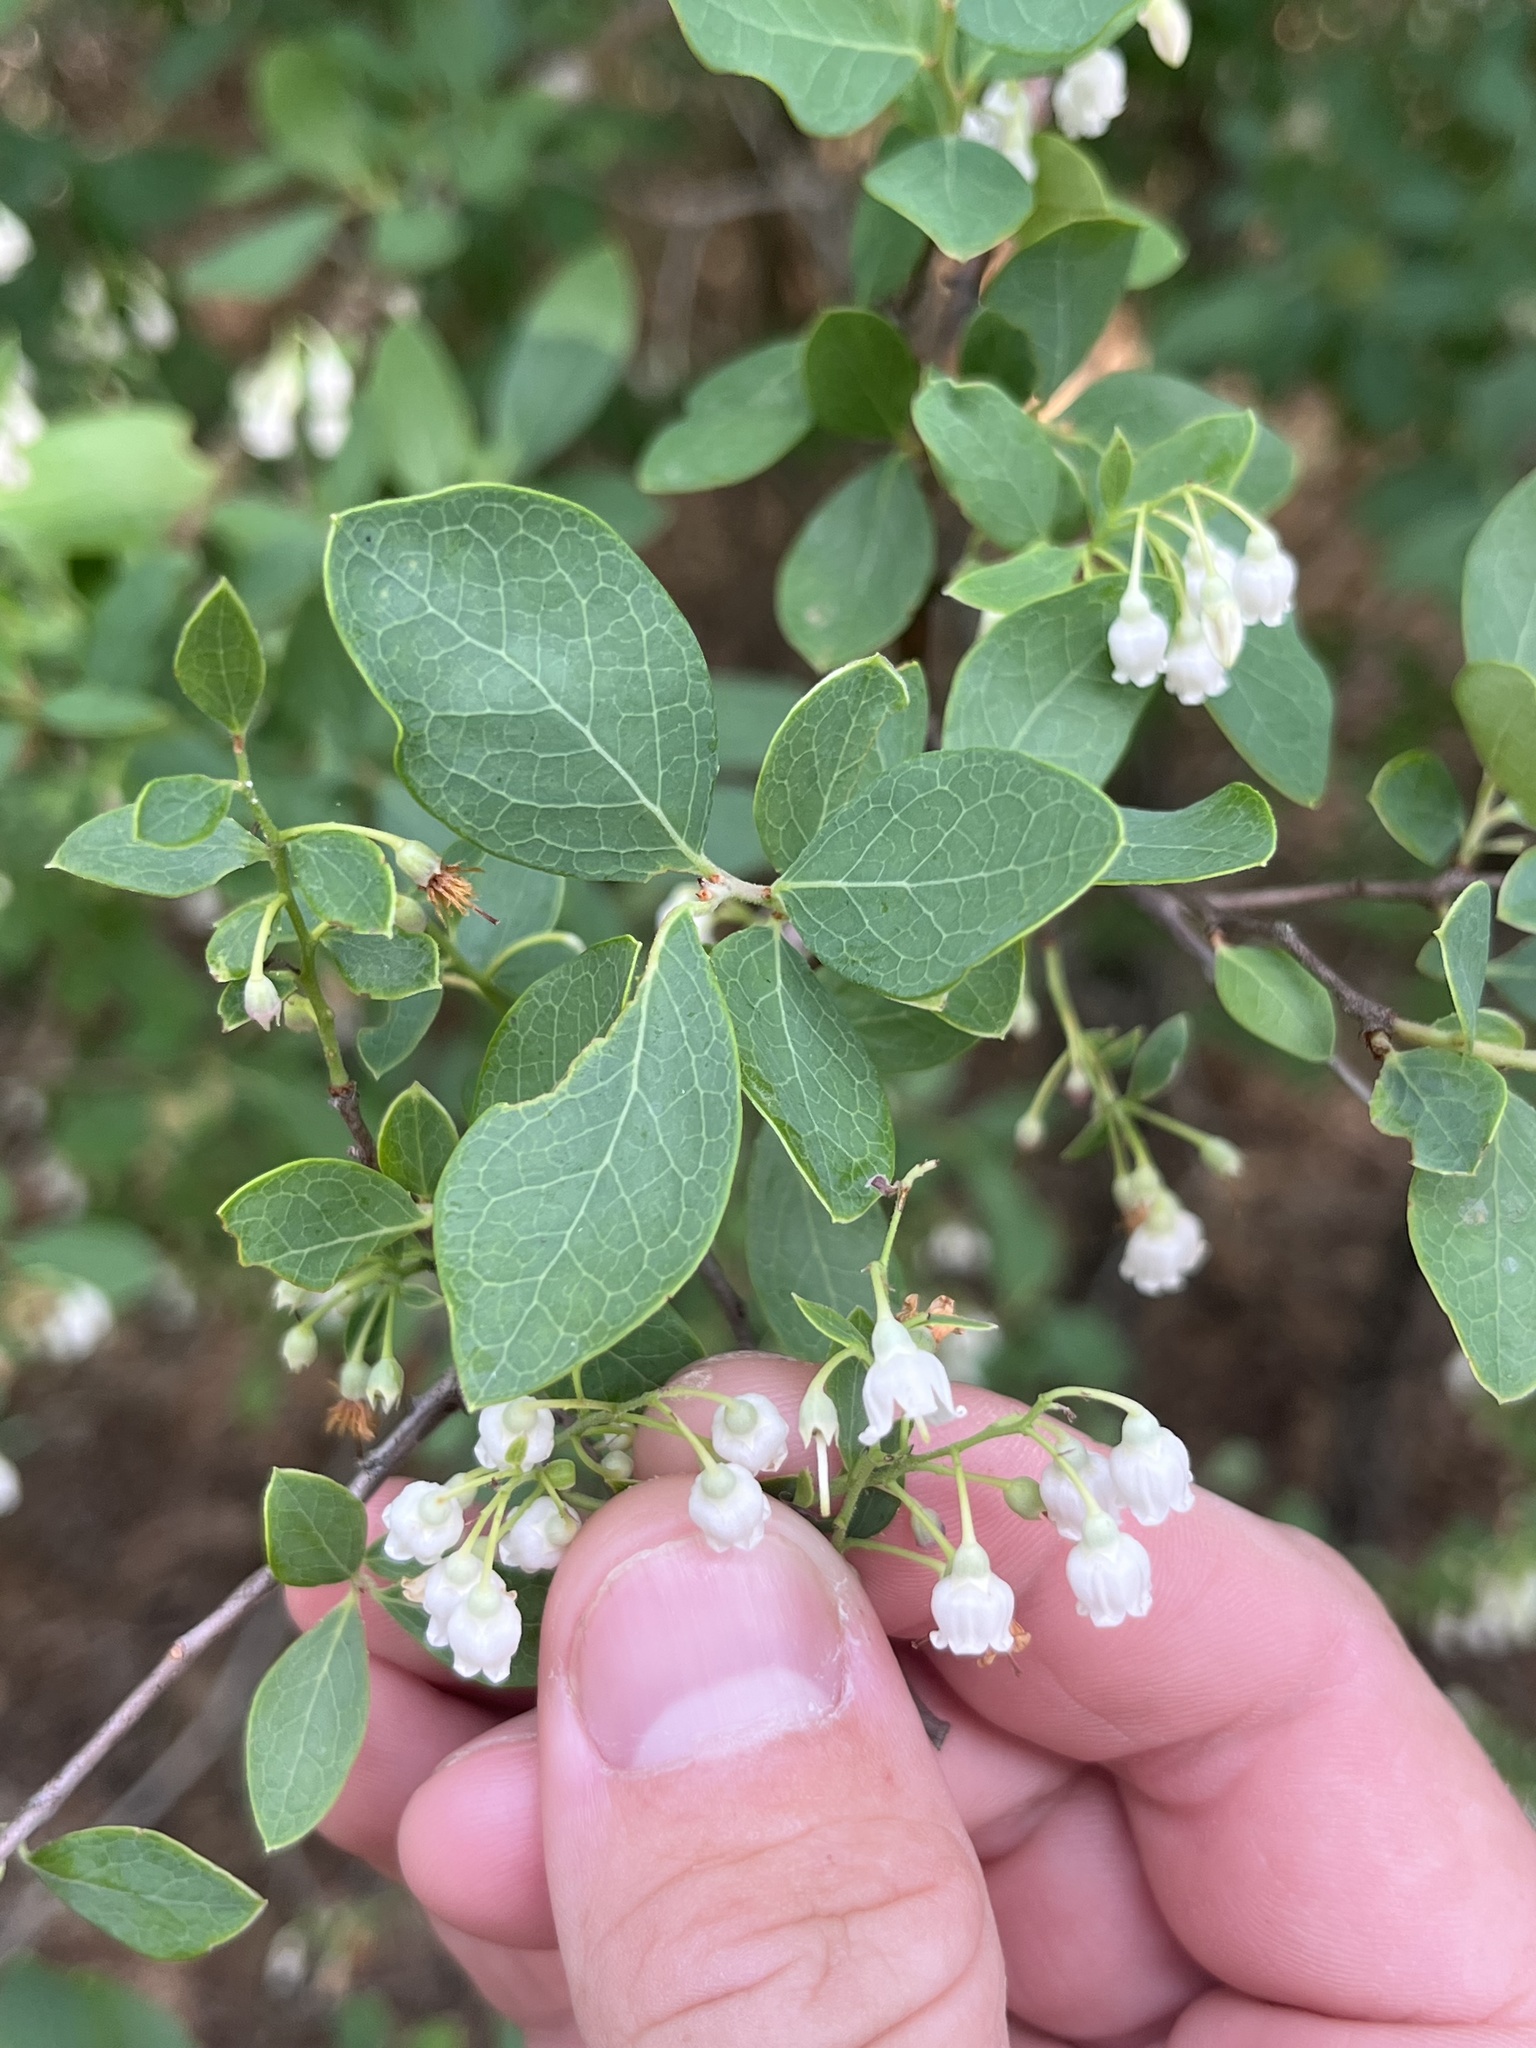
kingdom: Plantae
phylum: Tracheophyta
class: Magnoliopsida
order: Ericales
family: Ericaceae
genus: Vaccinium
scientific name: Vaccinium arboreum
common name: Farkleberry
